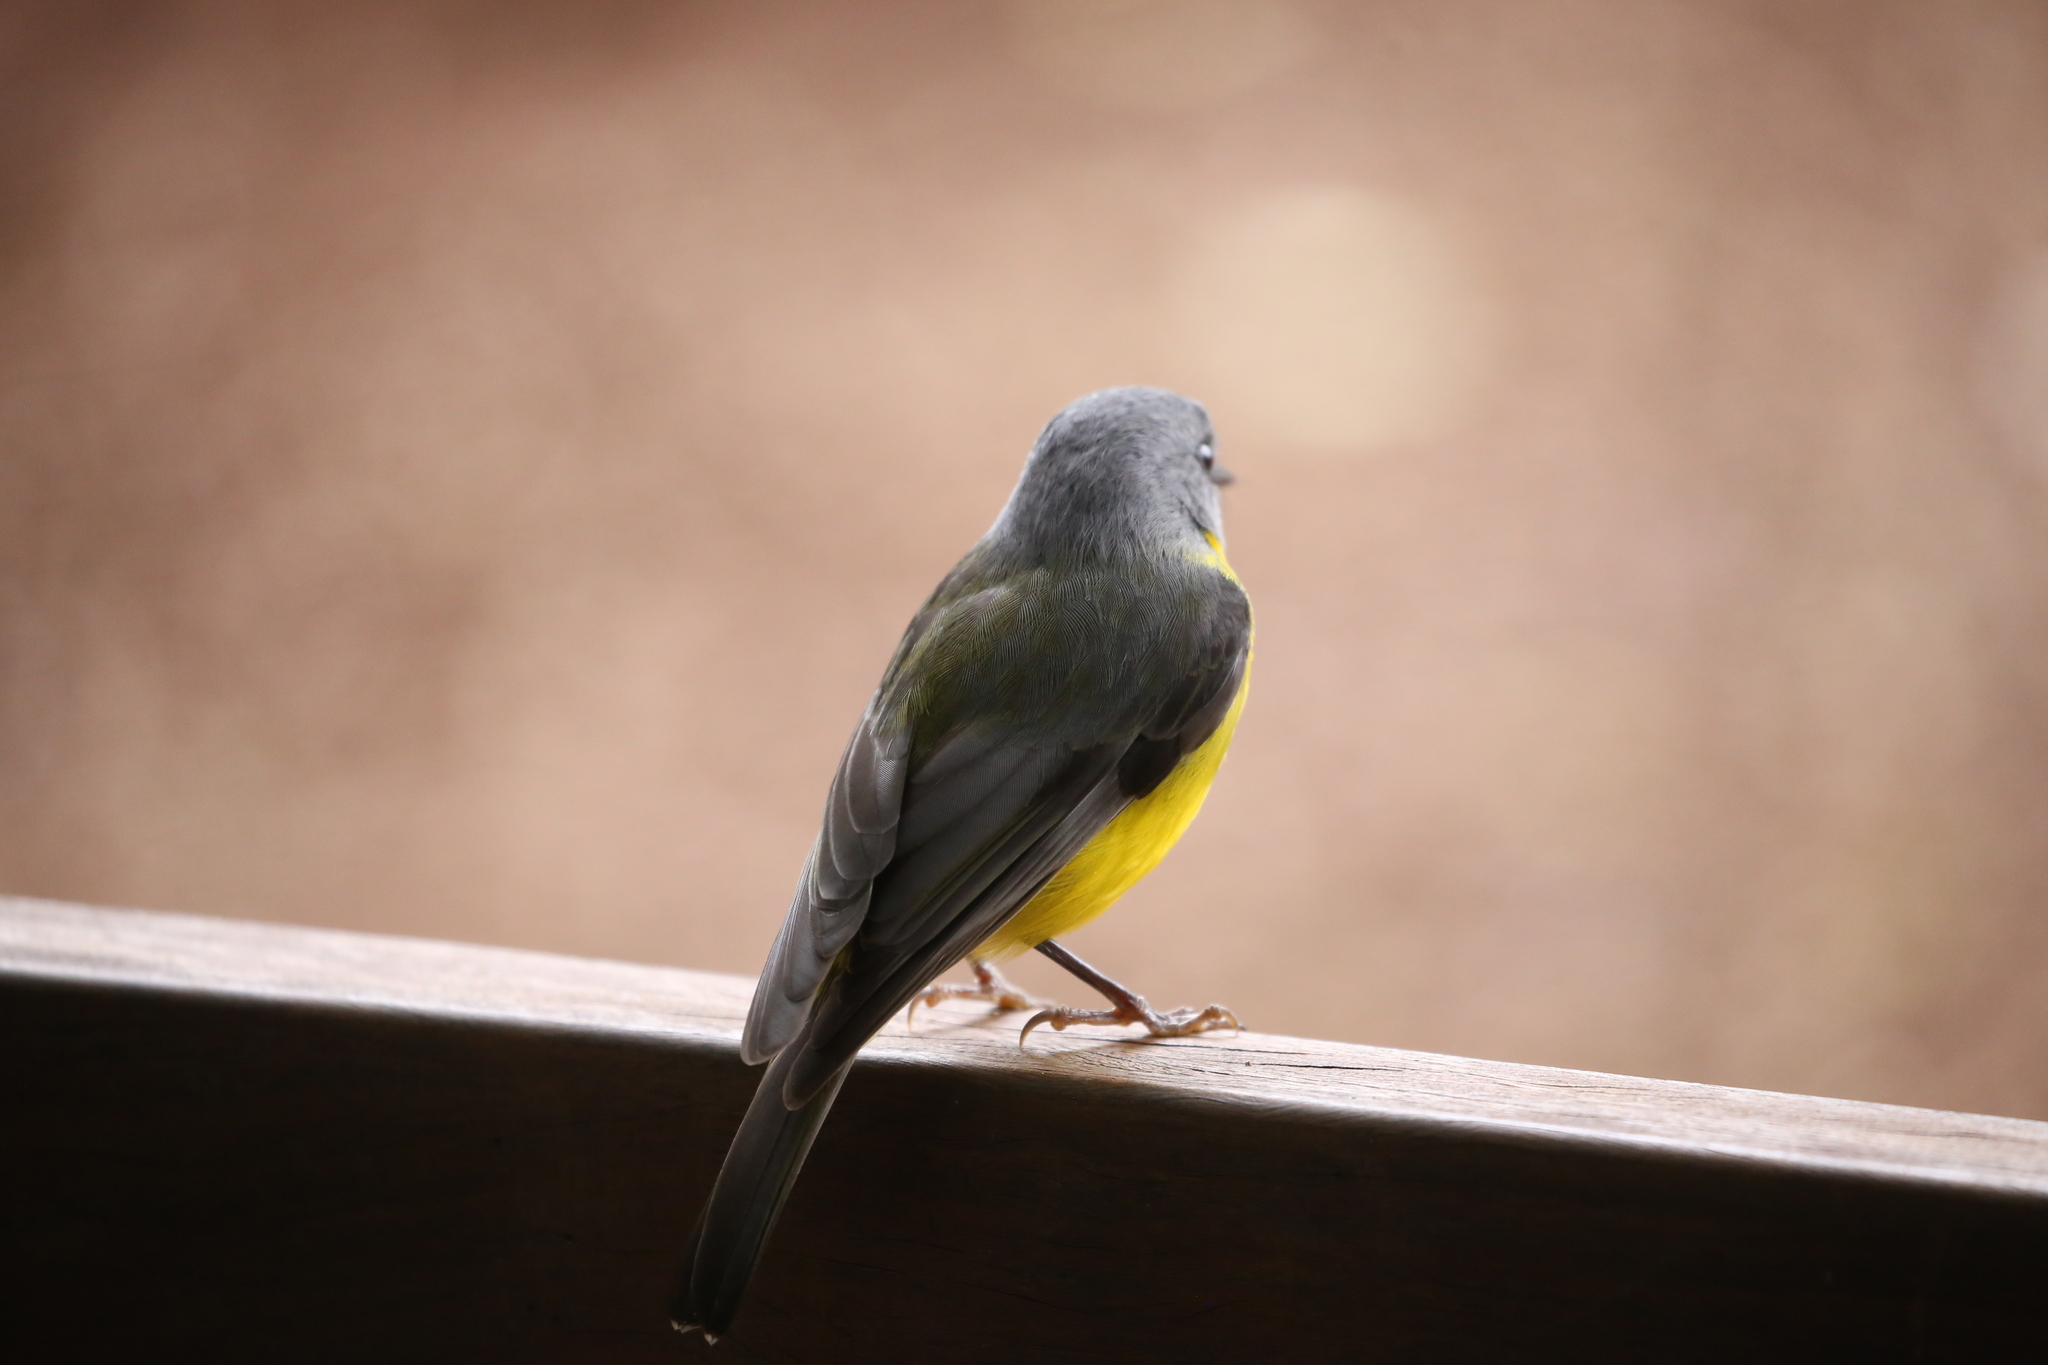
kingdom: Animalia
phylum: Chordata
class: Aves
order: Passeriformes
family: Petroicidae
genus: Eopsaltria
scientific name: Eopsaltria australis
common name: Eastern yellow robin
